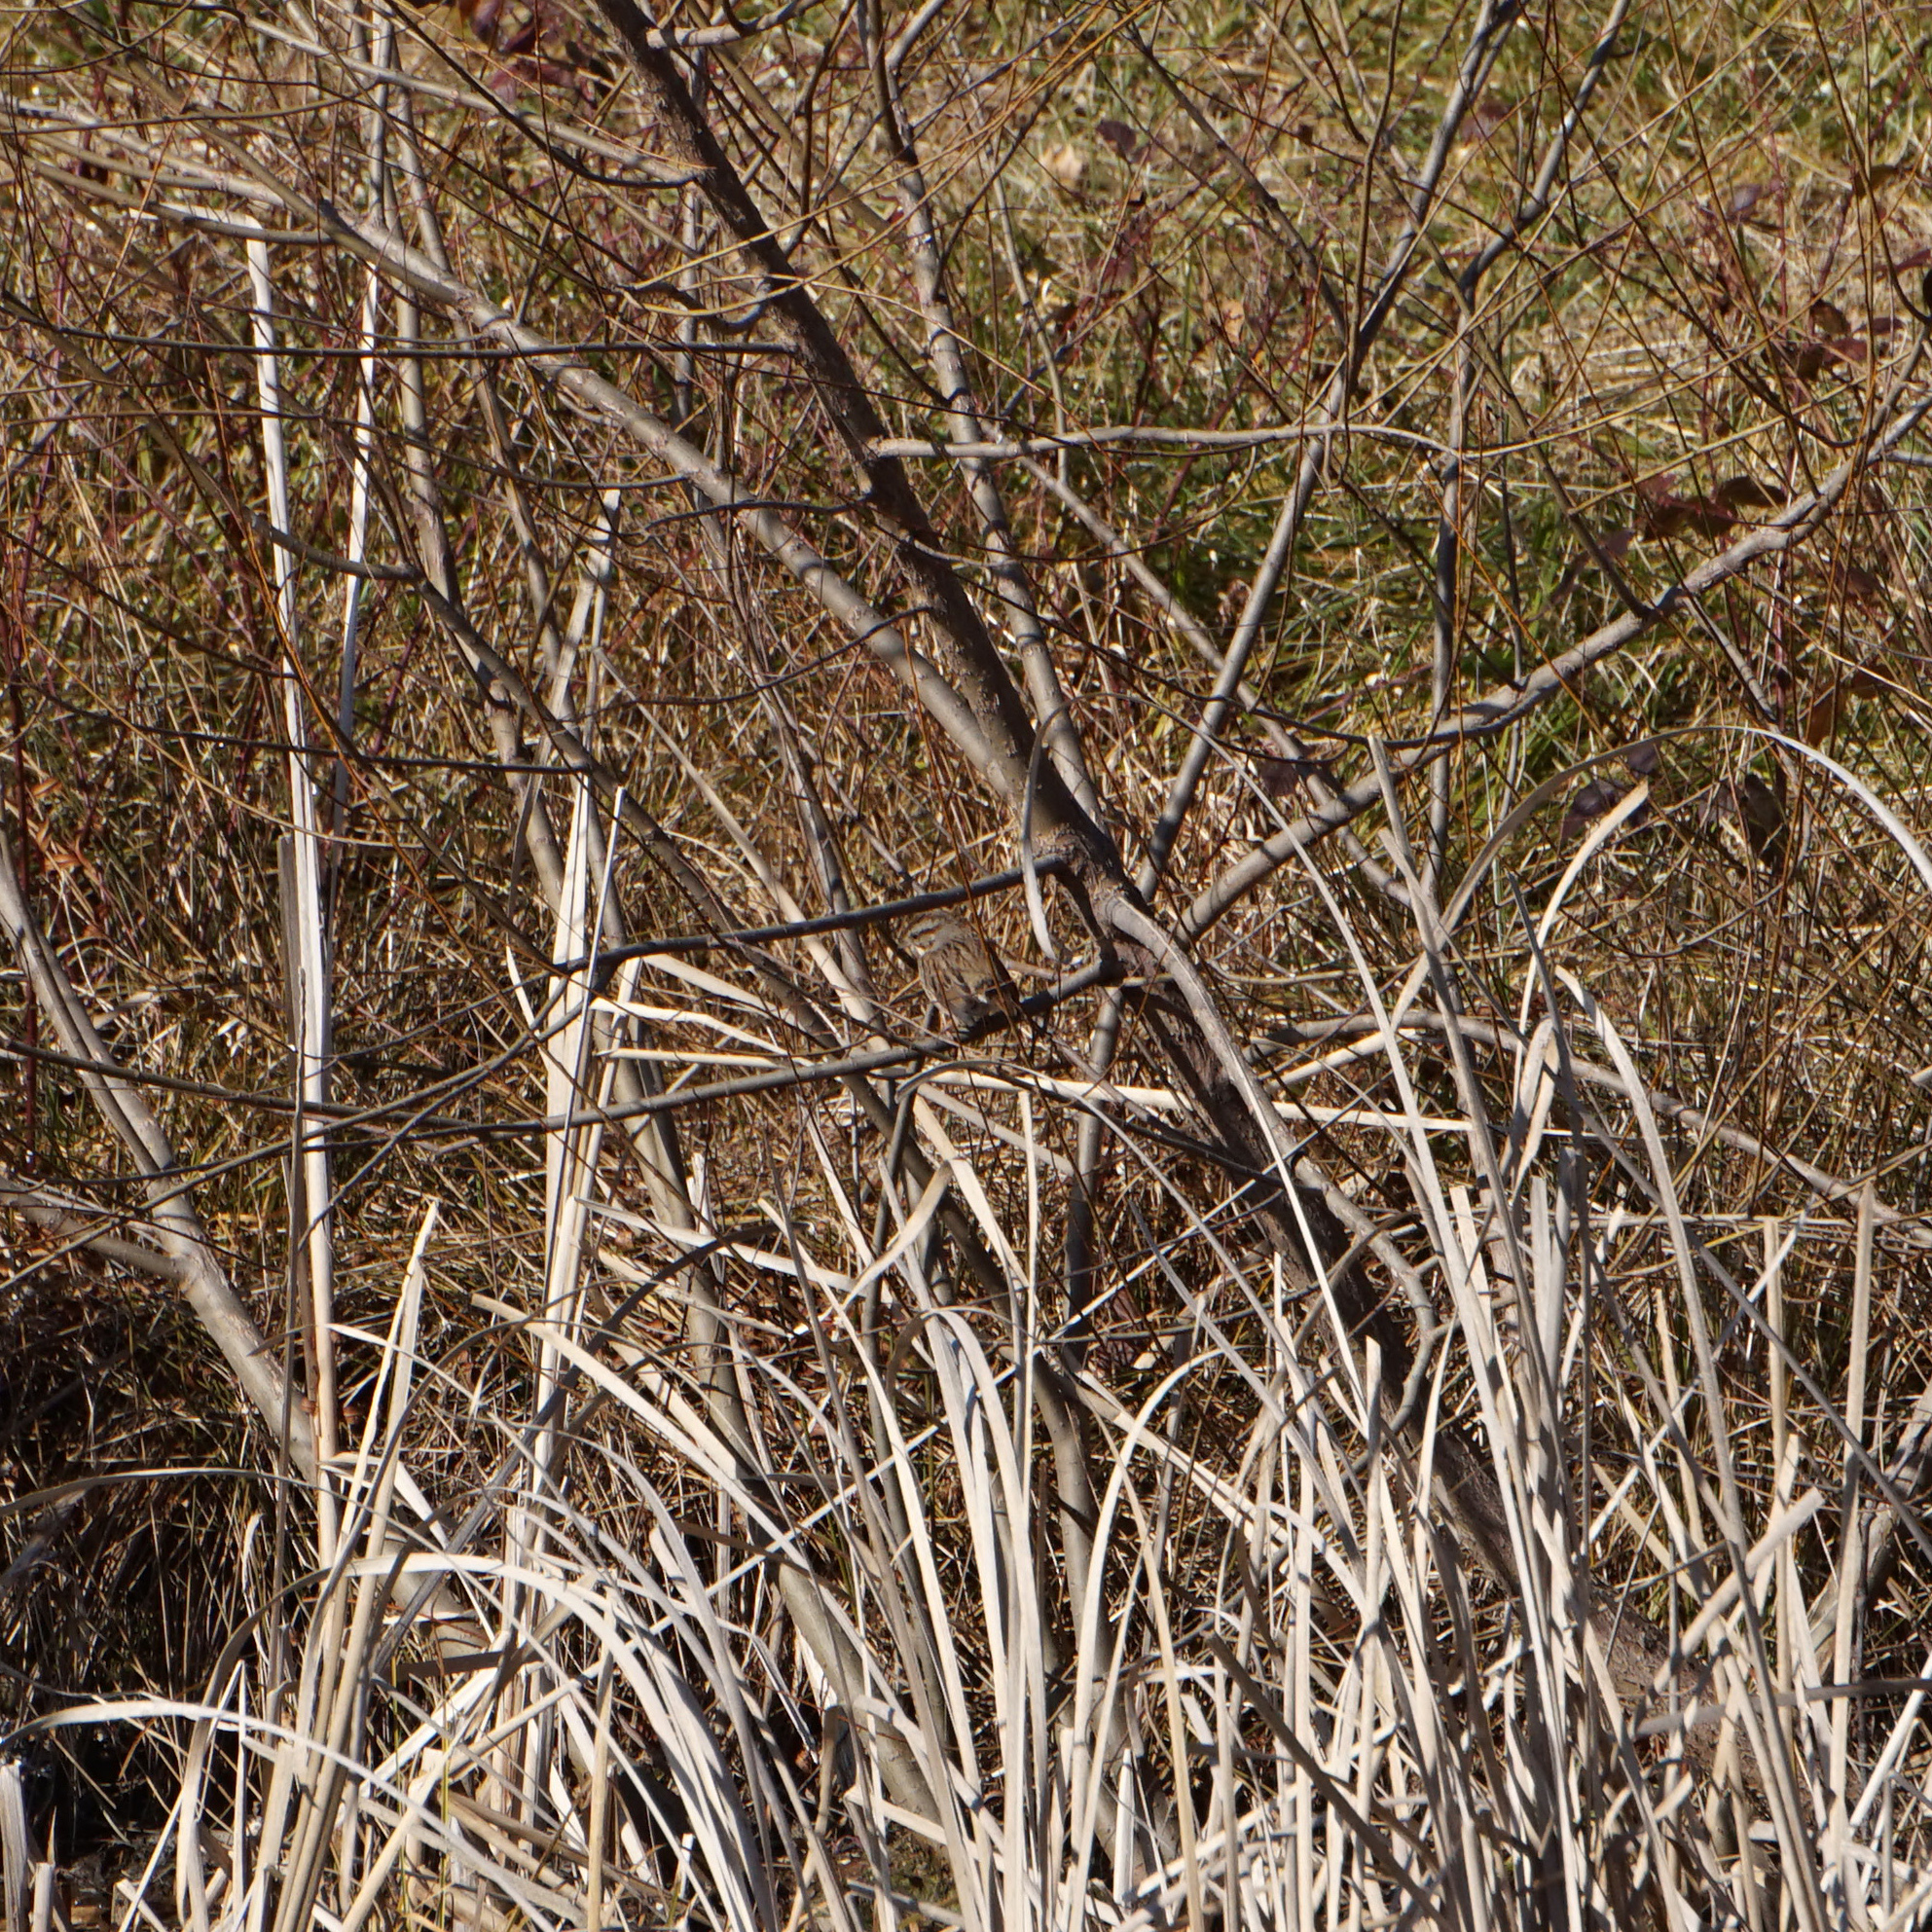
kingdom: Animalia
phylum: Chordata
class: Aves
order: Passeriformes
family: Passerellidae
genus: Melospiza
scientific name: Melospiza melodia
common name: Song sparrow
